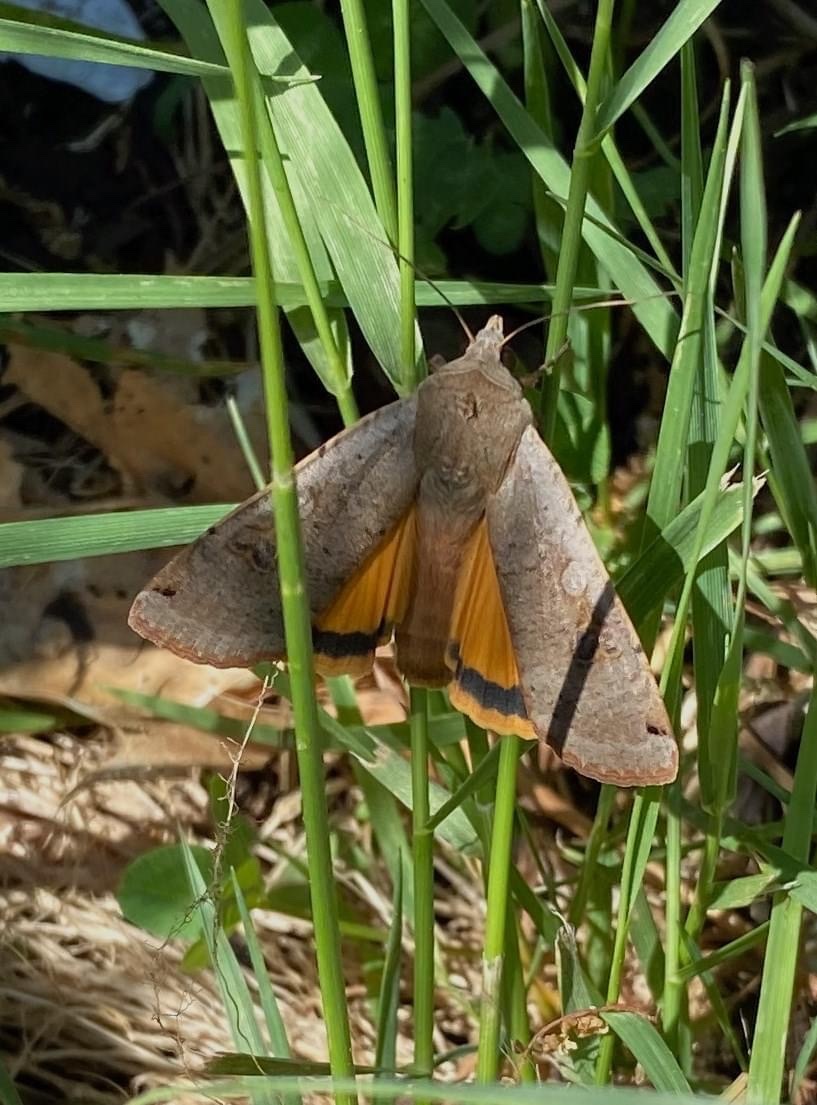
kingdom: Animalia
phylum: Arthropoda
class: Insecta
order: Lepidoptera
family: Noctuidae
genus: Noctua
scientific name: Noctua pronuba
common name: Large yellow underwing
